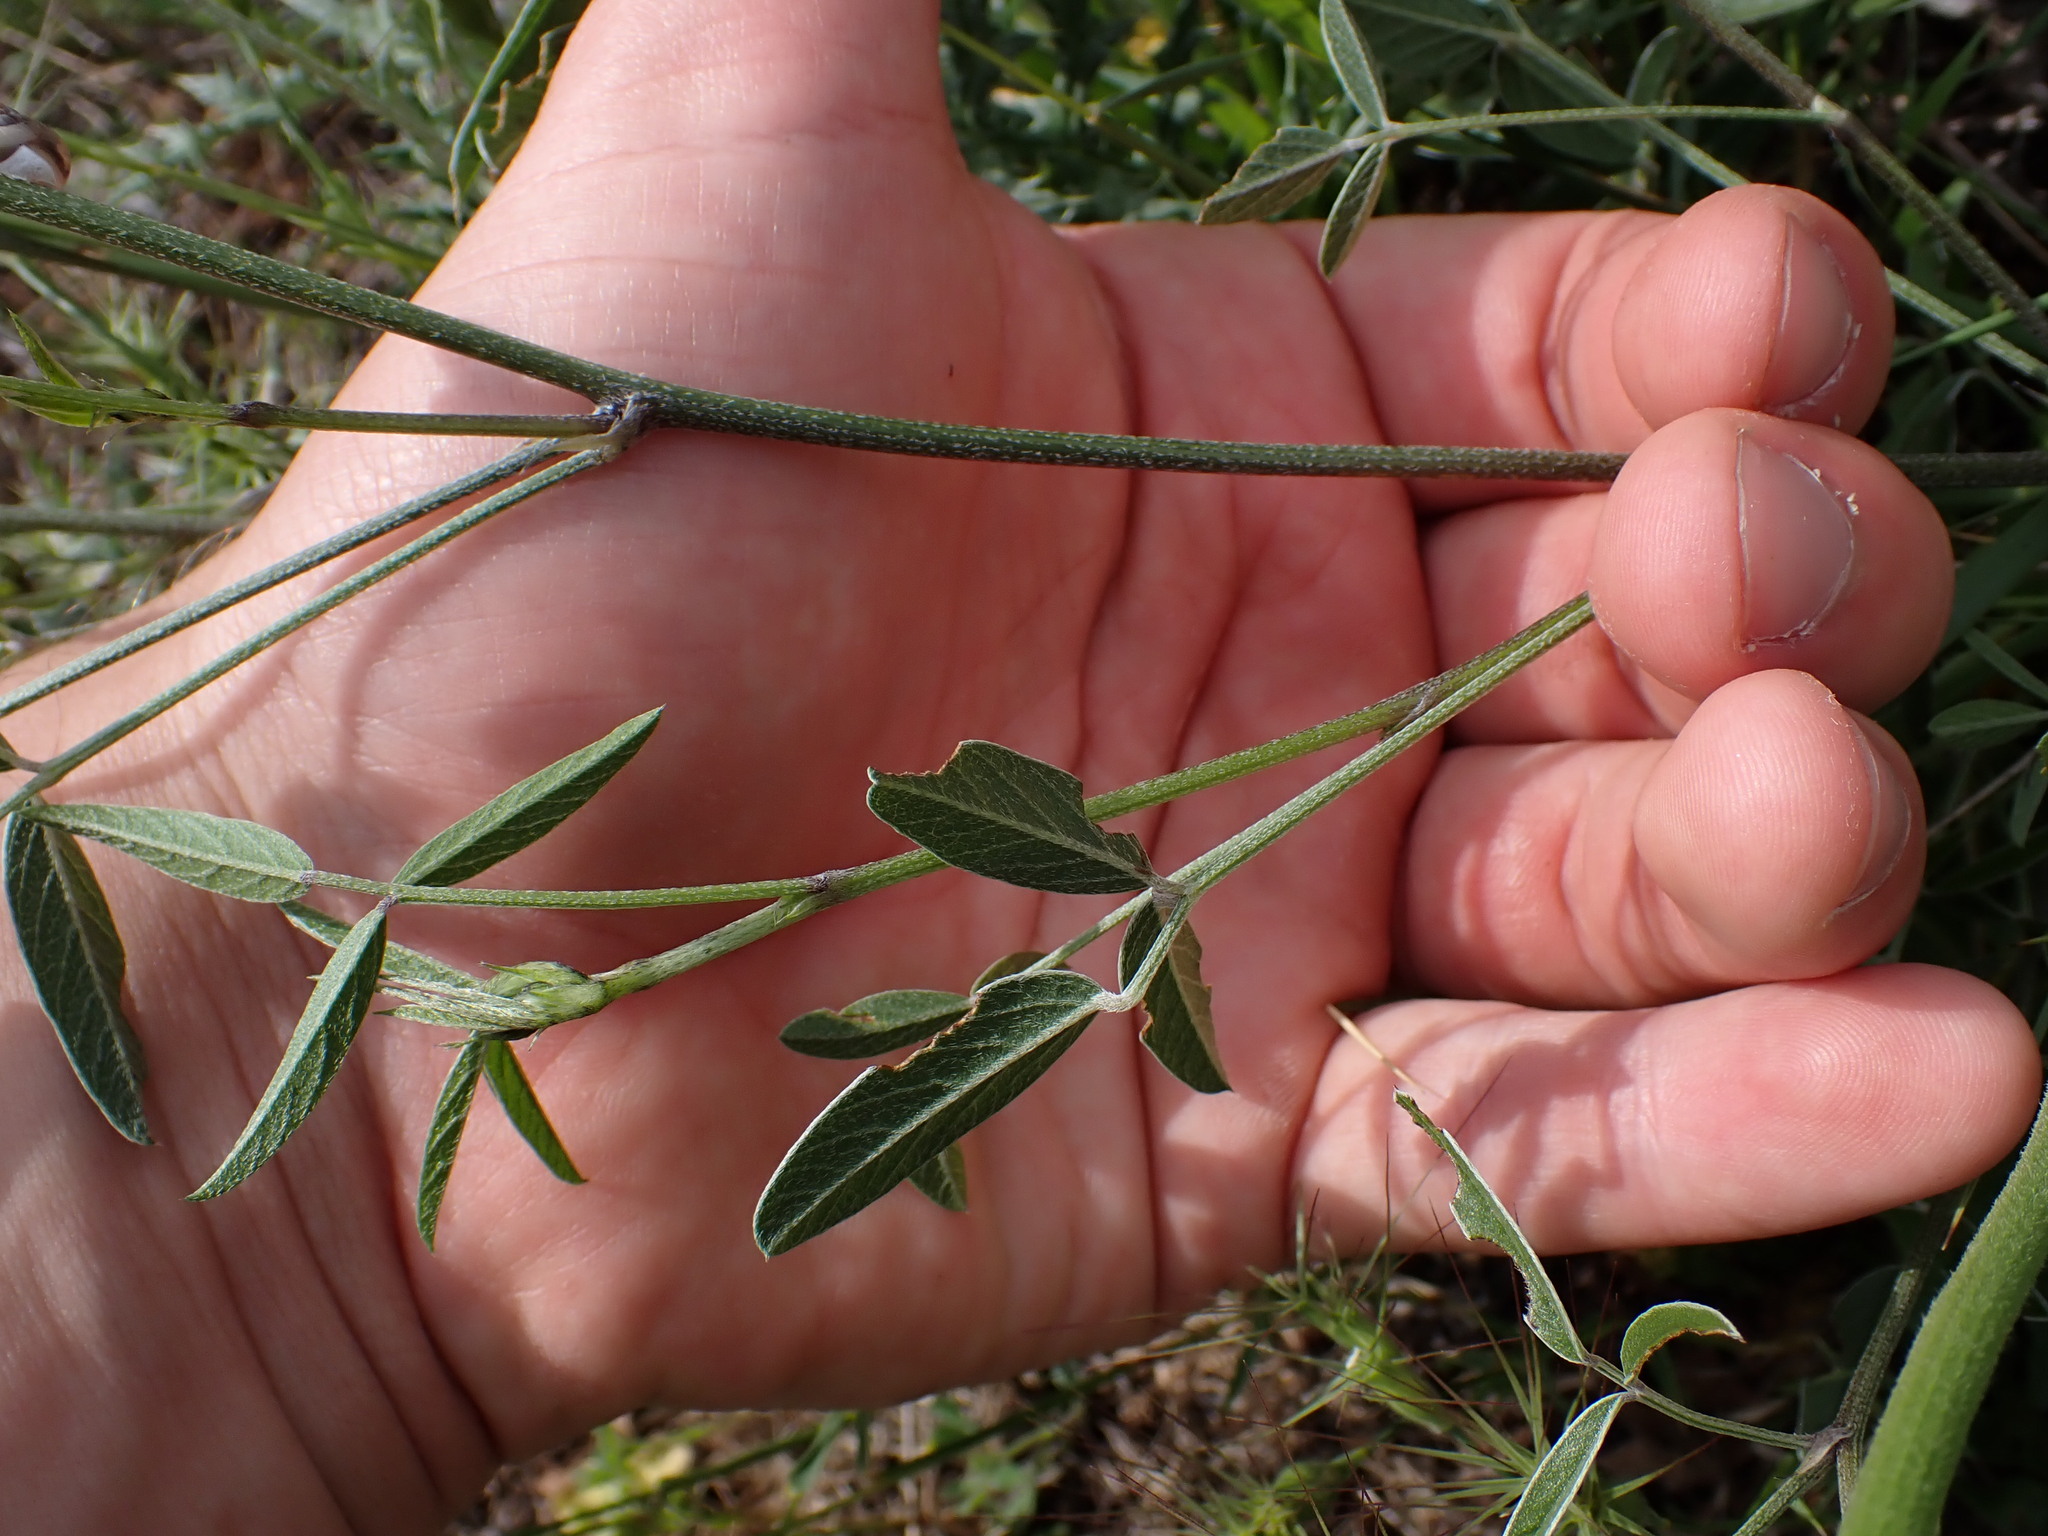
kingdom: Plantae
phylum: Tracheophyta
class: Magnoliopsida
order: Fabales
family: Fabaceae
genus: Bituminaria
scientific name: Bituminaria bituminosa
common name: Arabian pea
